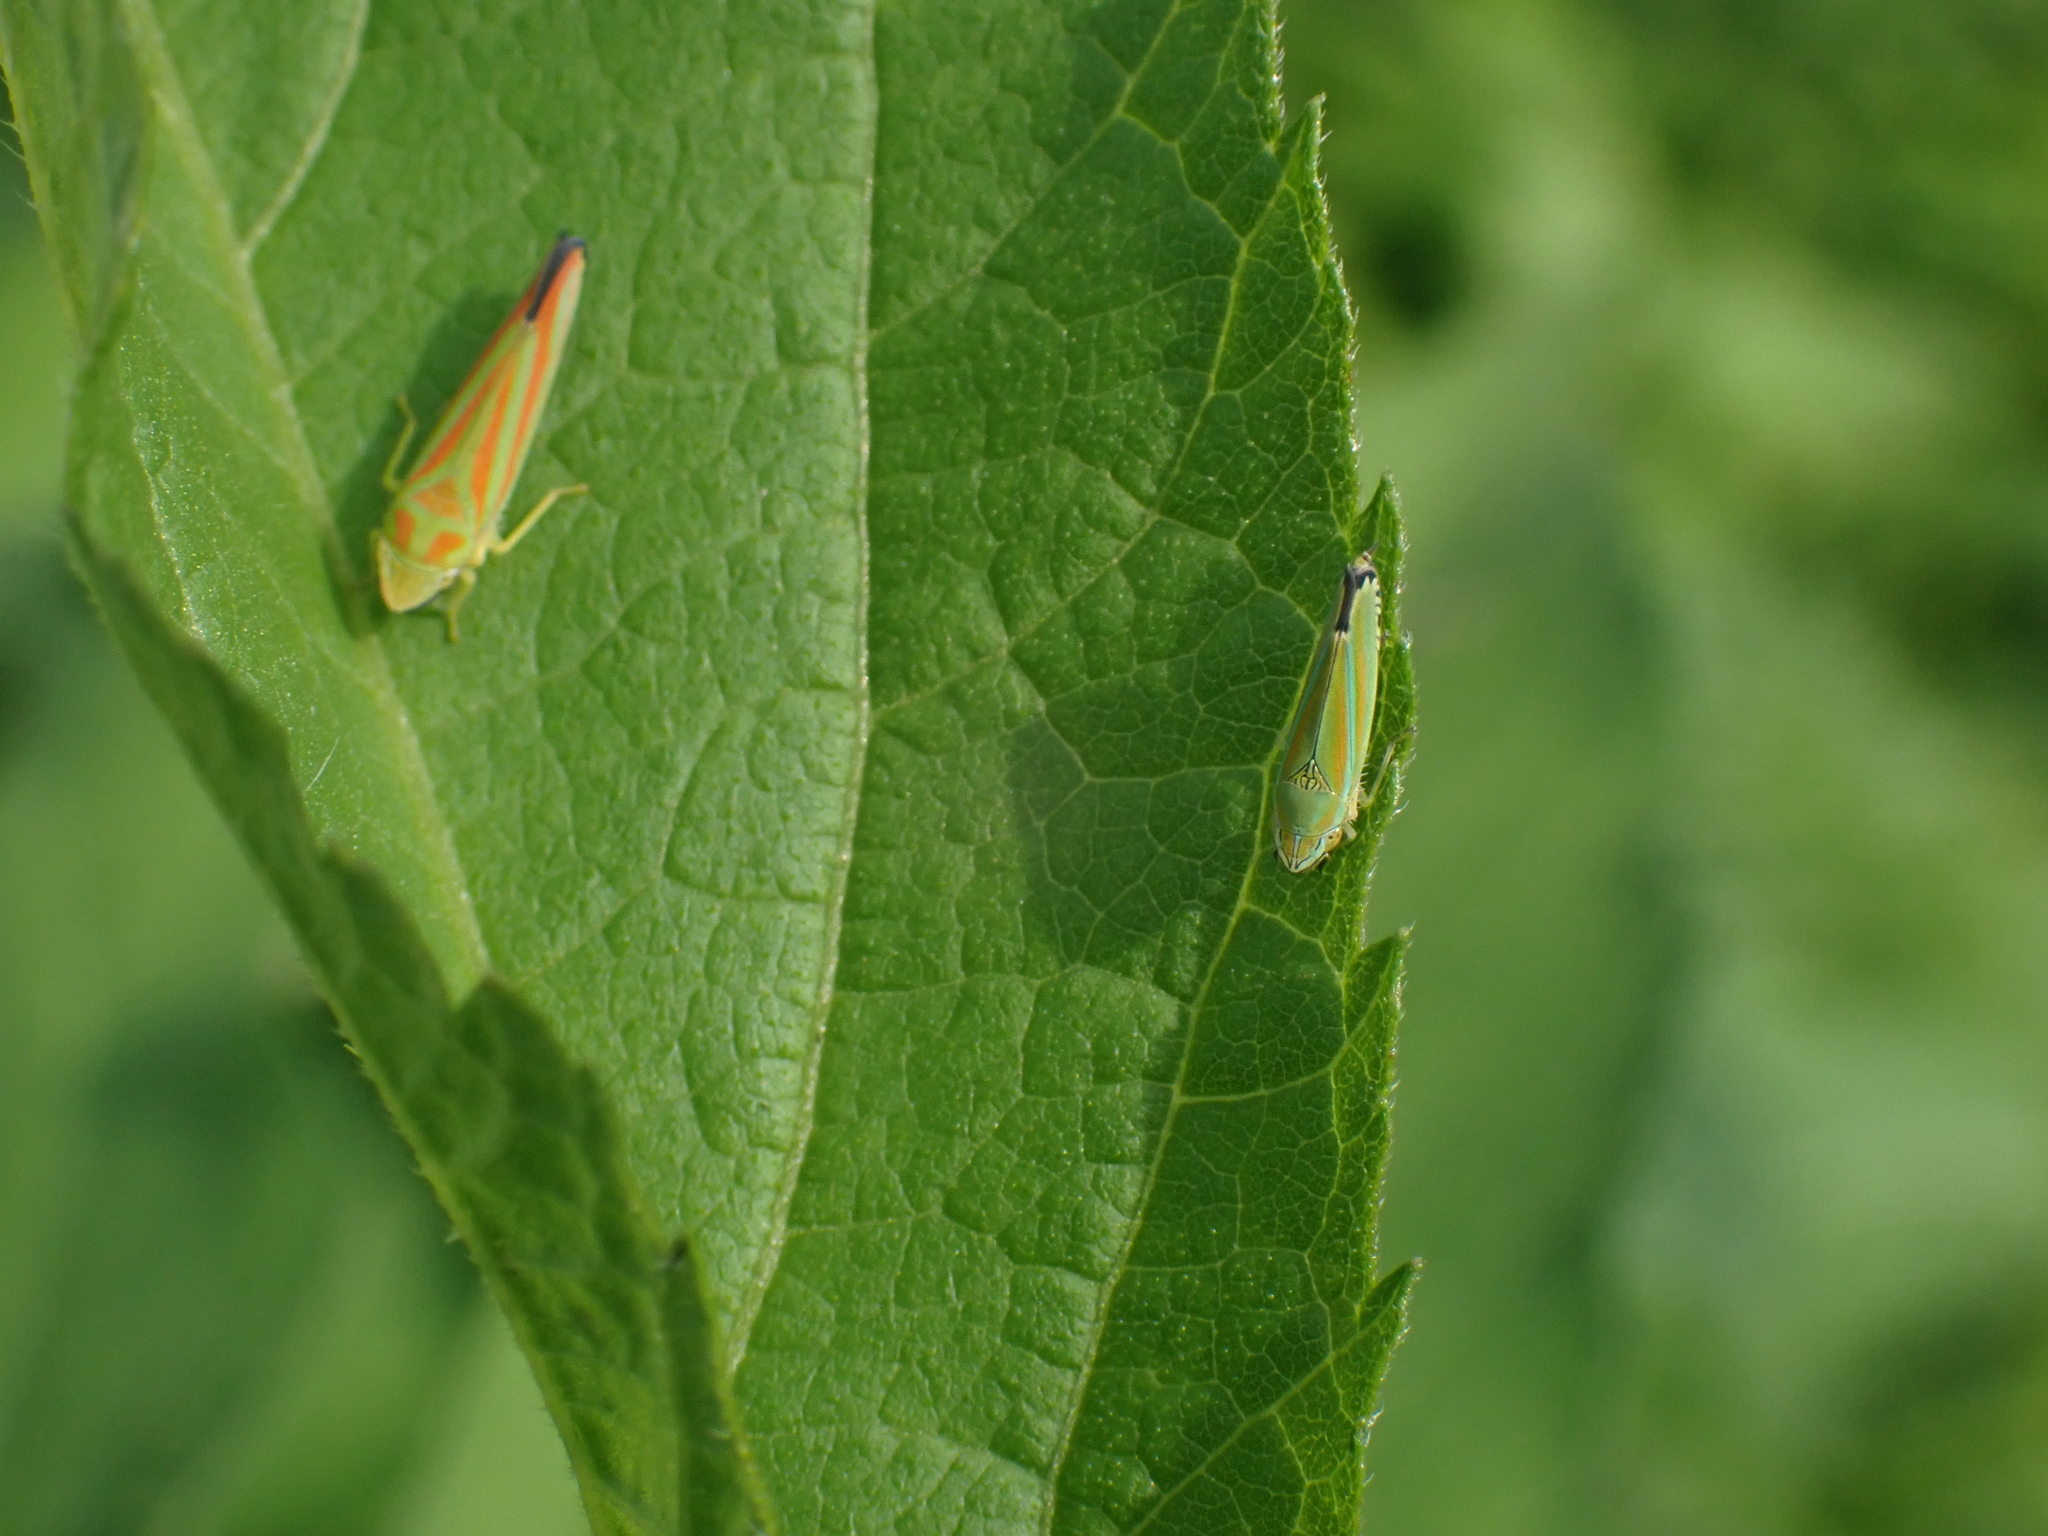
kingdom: Animalia
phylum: Arthropoda
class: Insecta
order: Hemiptera
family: Cicadellidae
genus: Graphocephala
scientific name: Graphocephala coccinea
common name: Candy-striped leafhopper
